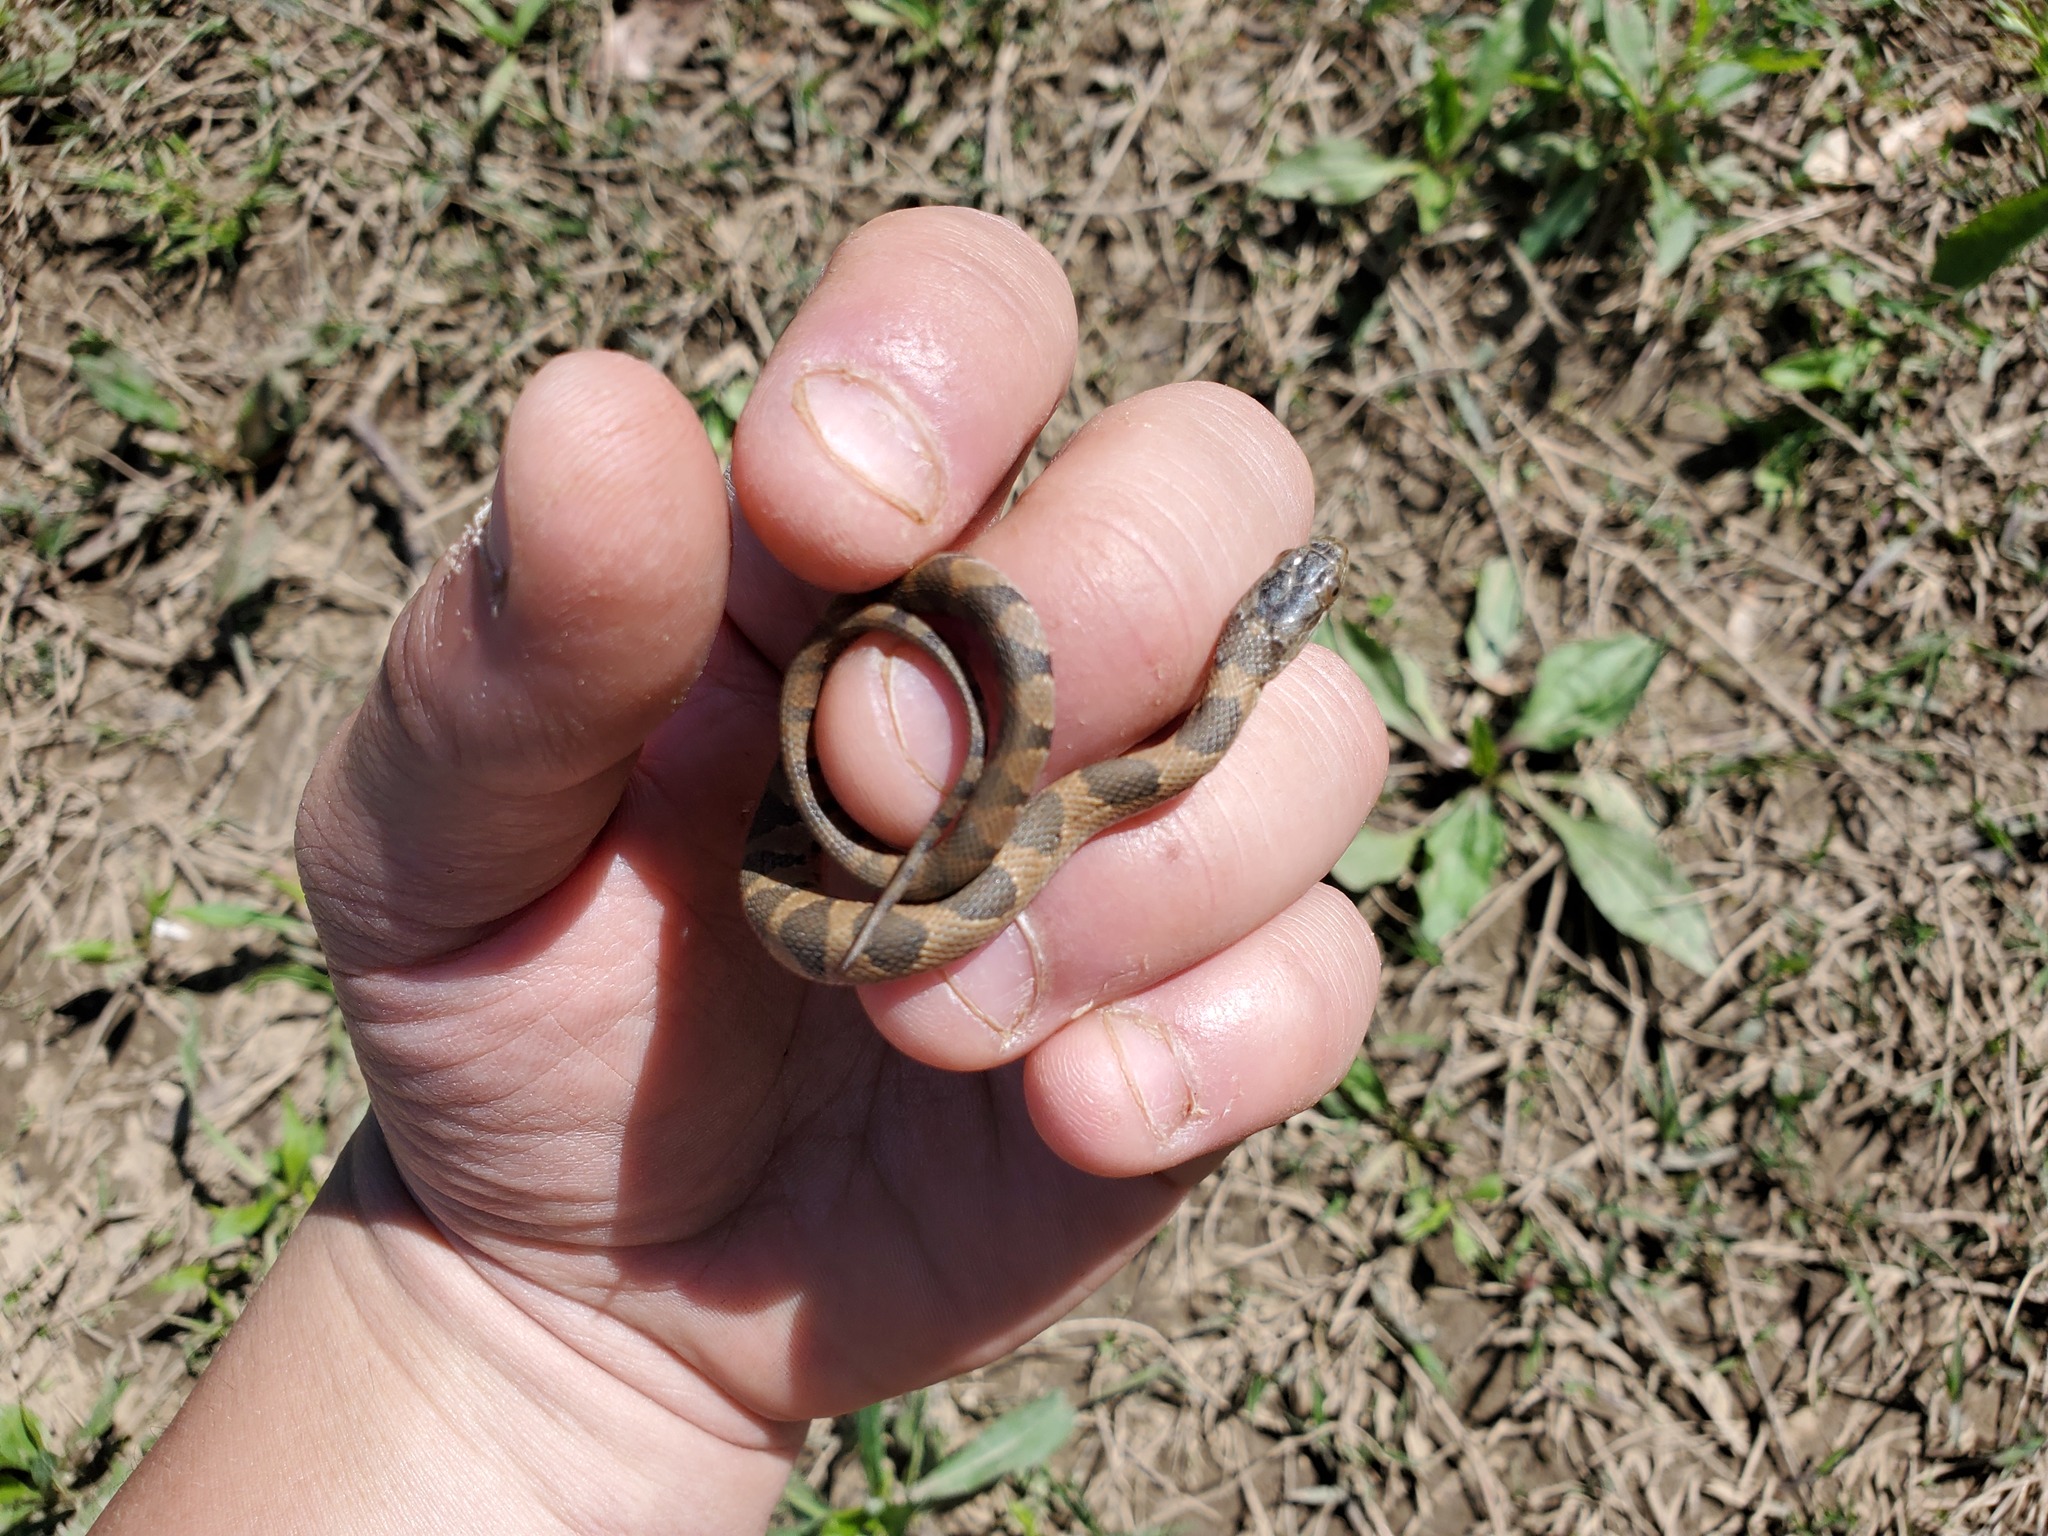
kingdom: Animalia
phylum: Chordata
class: Squamata
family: Colubridae
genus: Nerodia
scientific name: Nerodia sipedon
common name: Northern water snake
